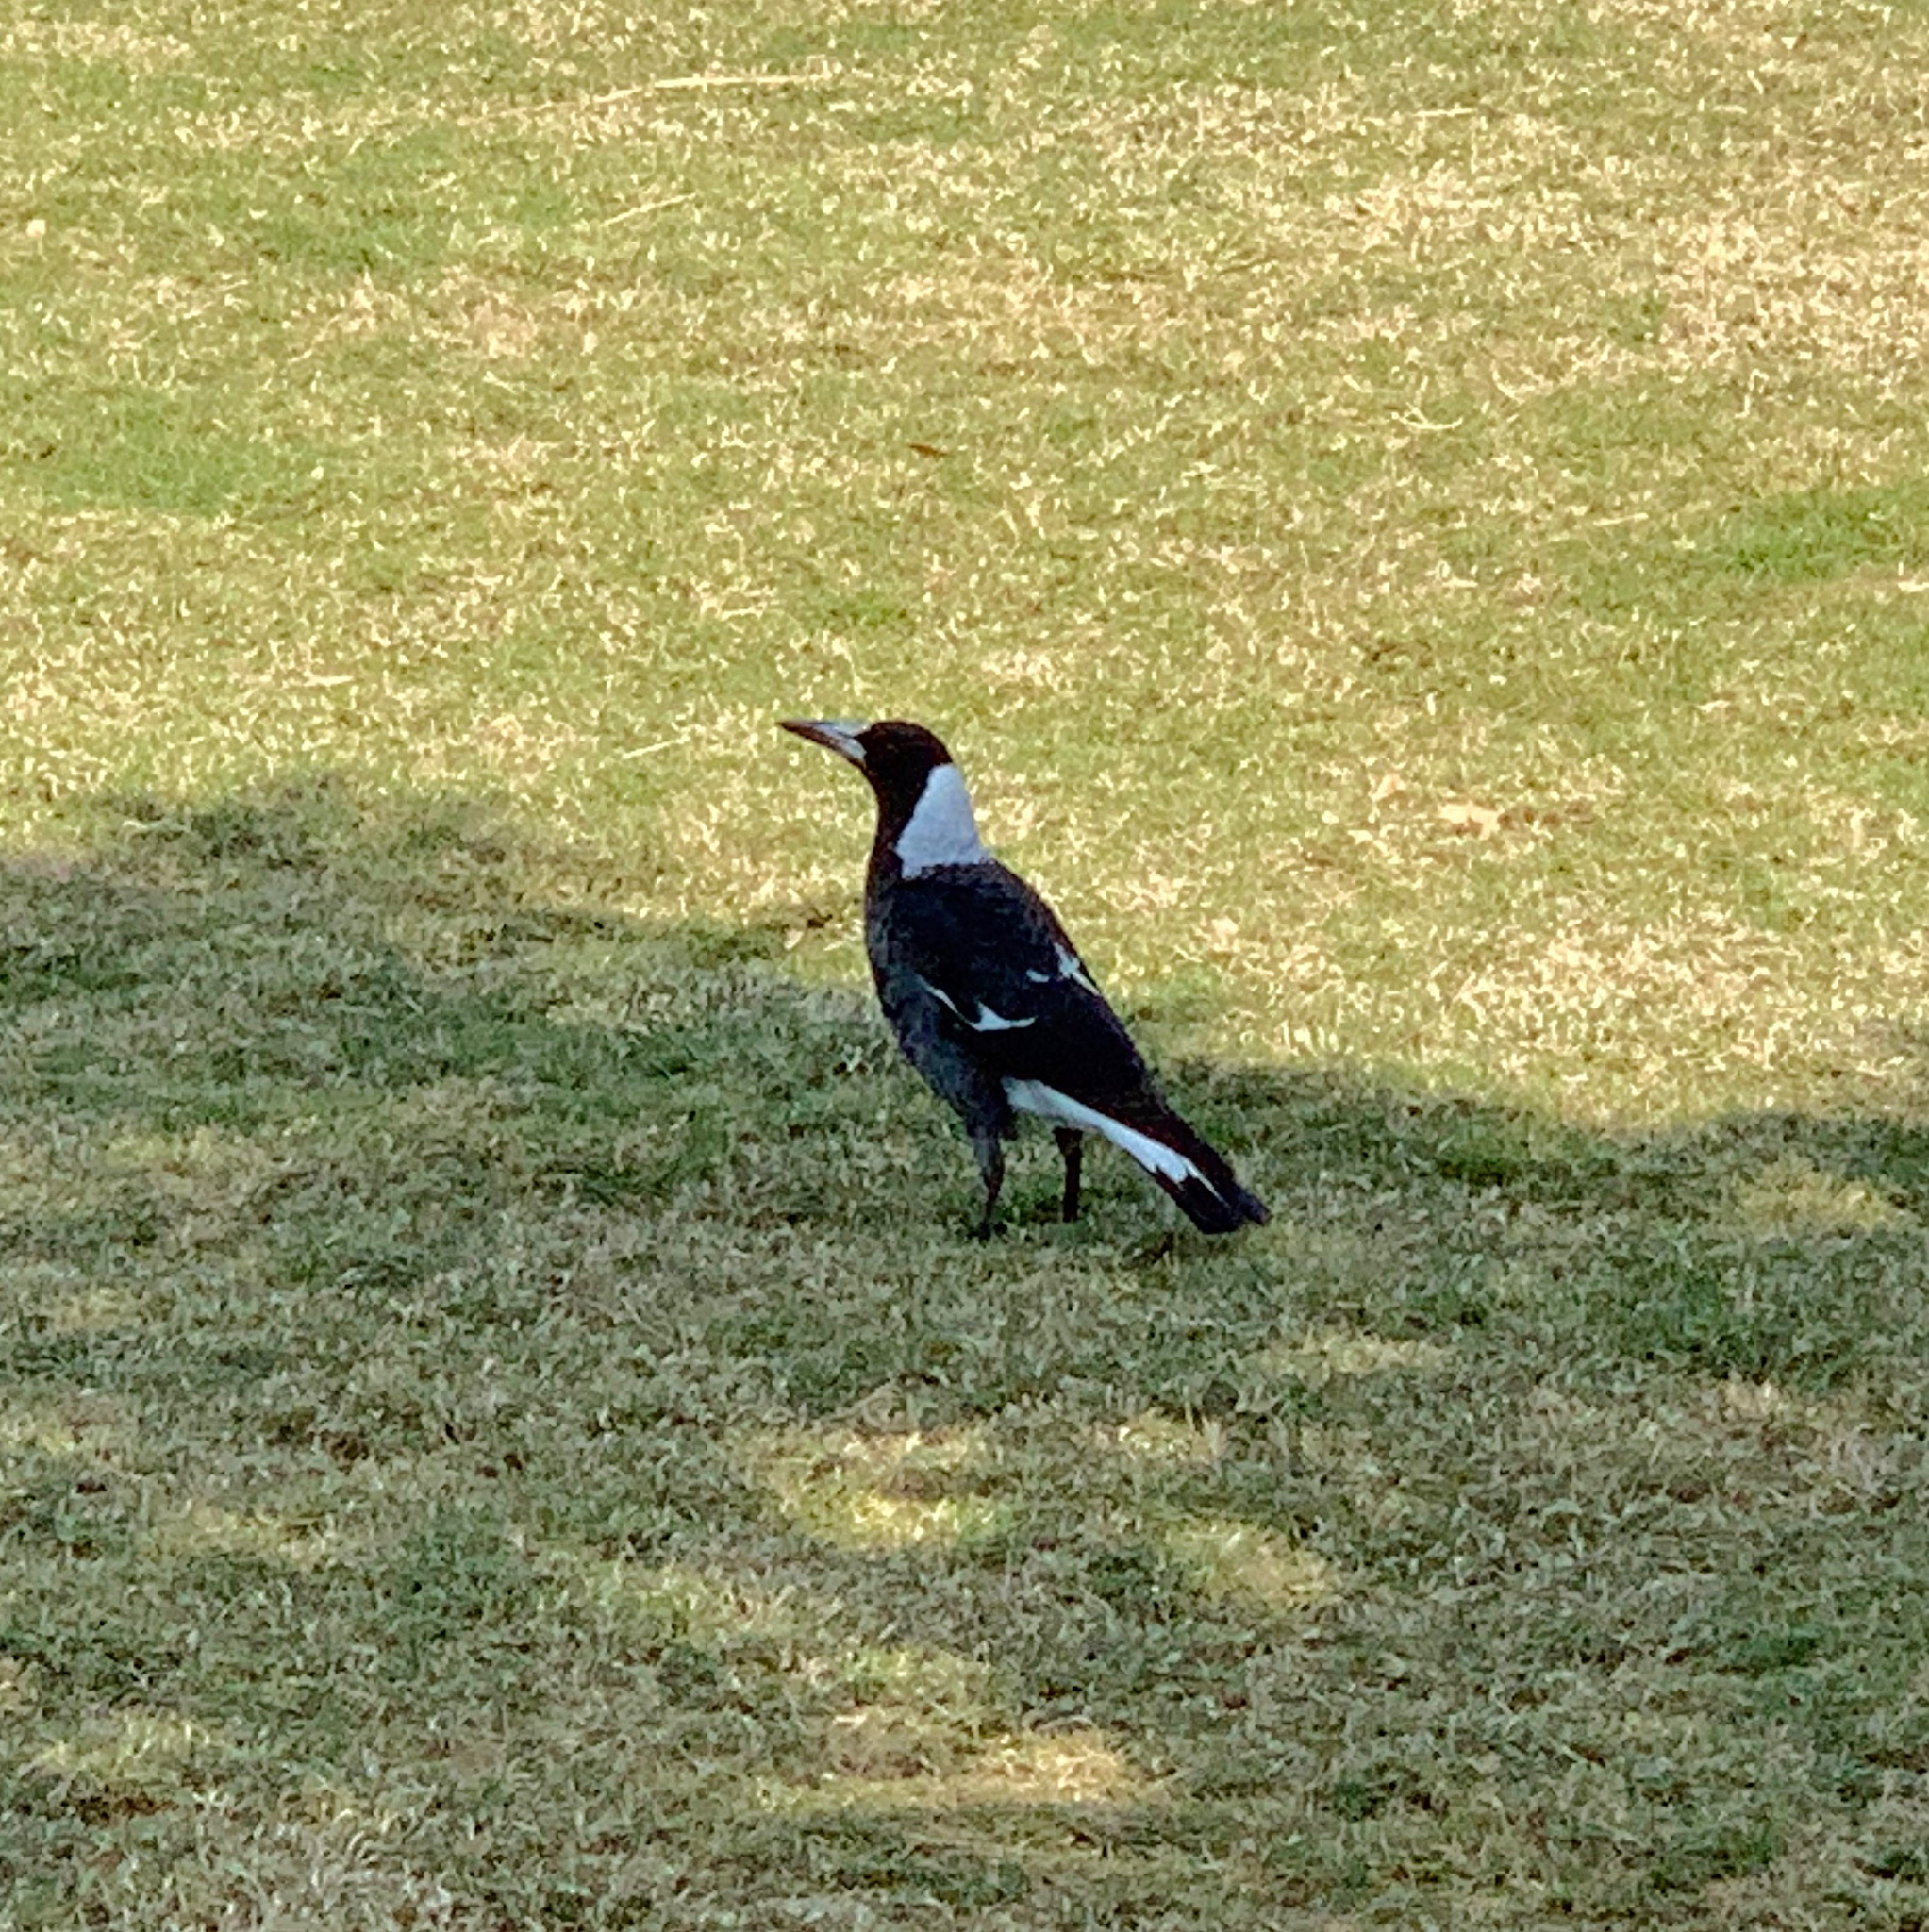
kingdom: Animalia
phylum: Chordata
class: Aves
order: Passeriformes
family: Cracticidae
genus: Gymnorhina
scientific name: Gymnorhina tibicen
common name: Australian magpie
